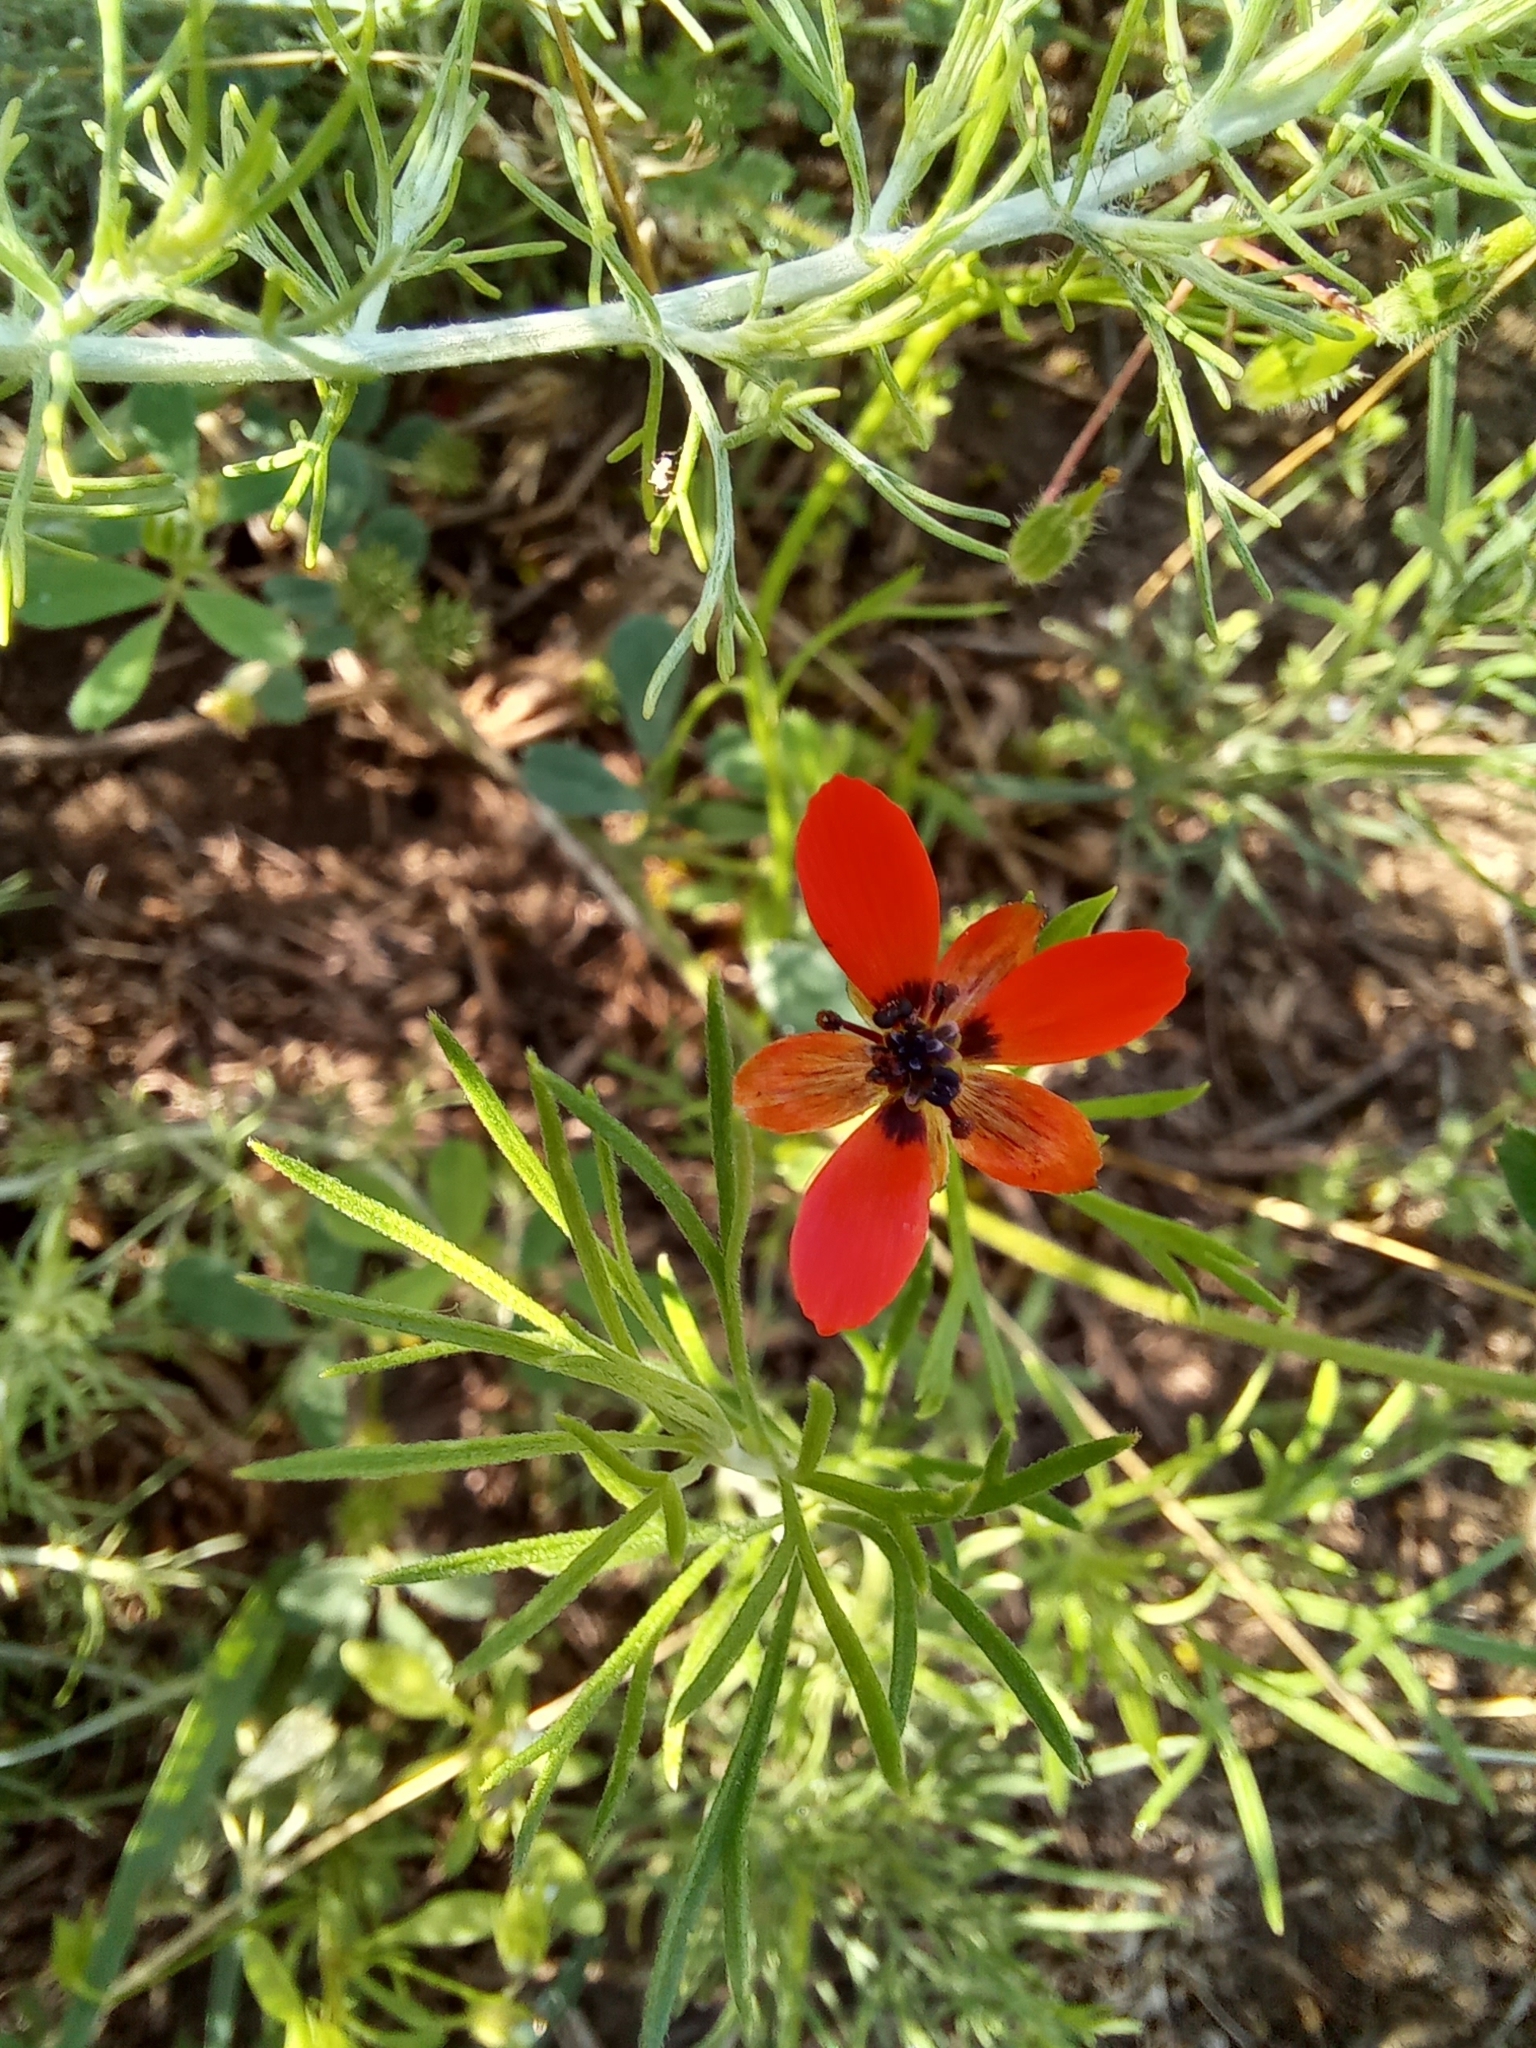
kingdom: Plantae
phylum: Tracheophyta
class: Magnoliopsida
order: Ranunculales
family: Ranunculaceae
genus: Adonis
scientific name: Adonis aestivalis
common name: Summer pheasant's-eye
